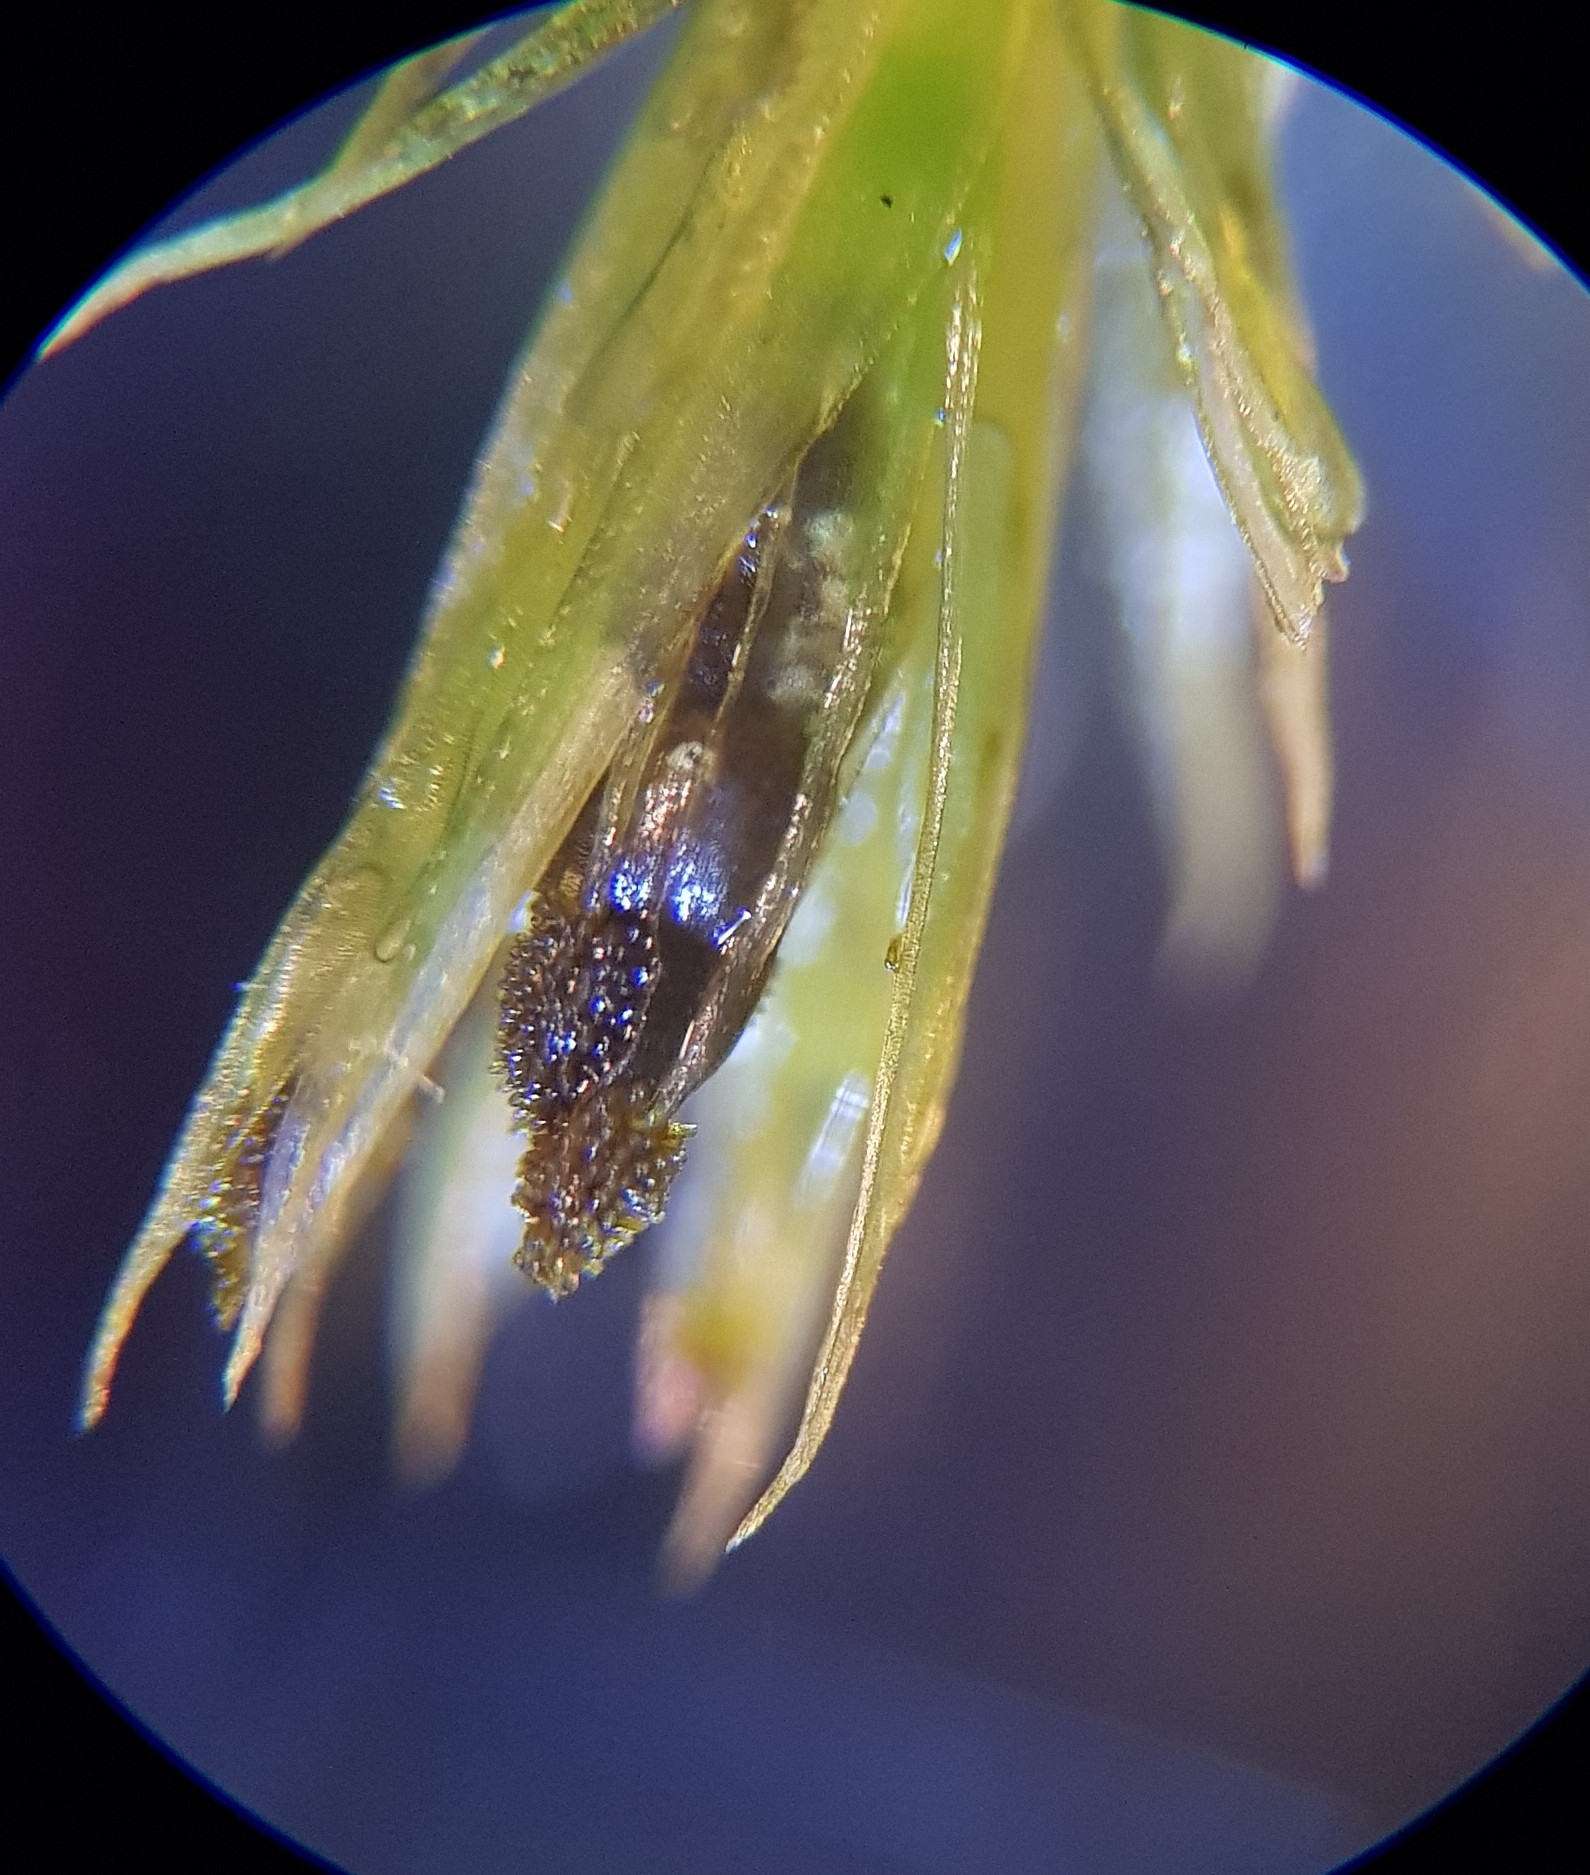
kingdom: Plantae
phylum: Bryophyta
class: Bryopsida
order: Orthotrichales
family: Orthotrichaceae
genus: Plenogemma
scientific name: Plenogemma phyllantha
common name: Frizzled pincushion
